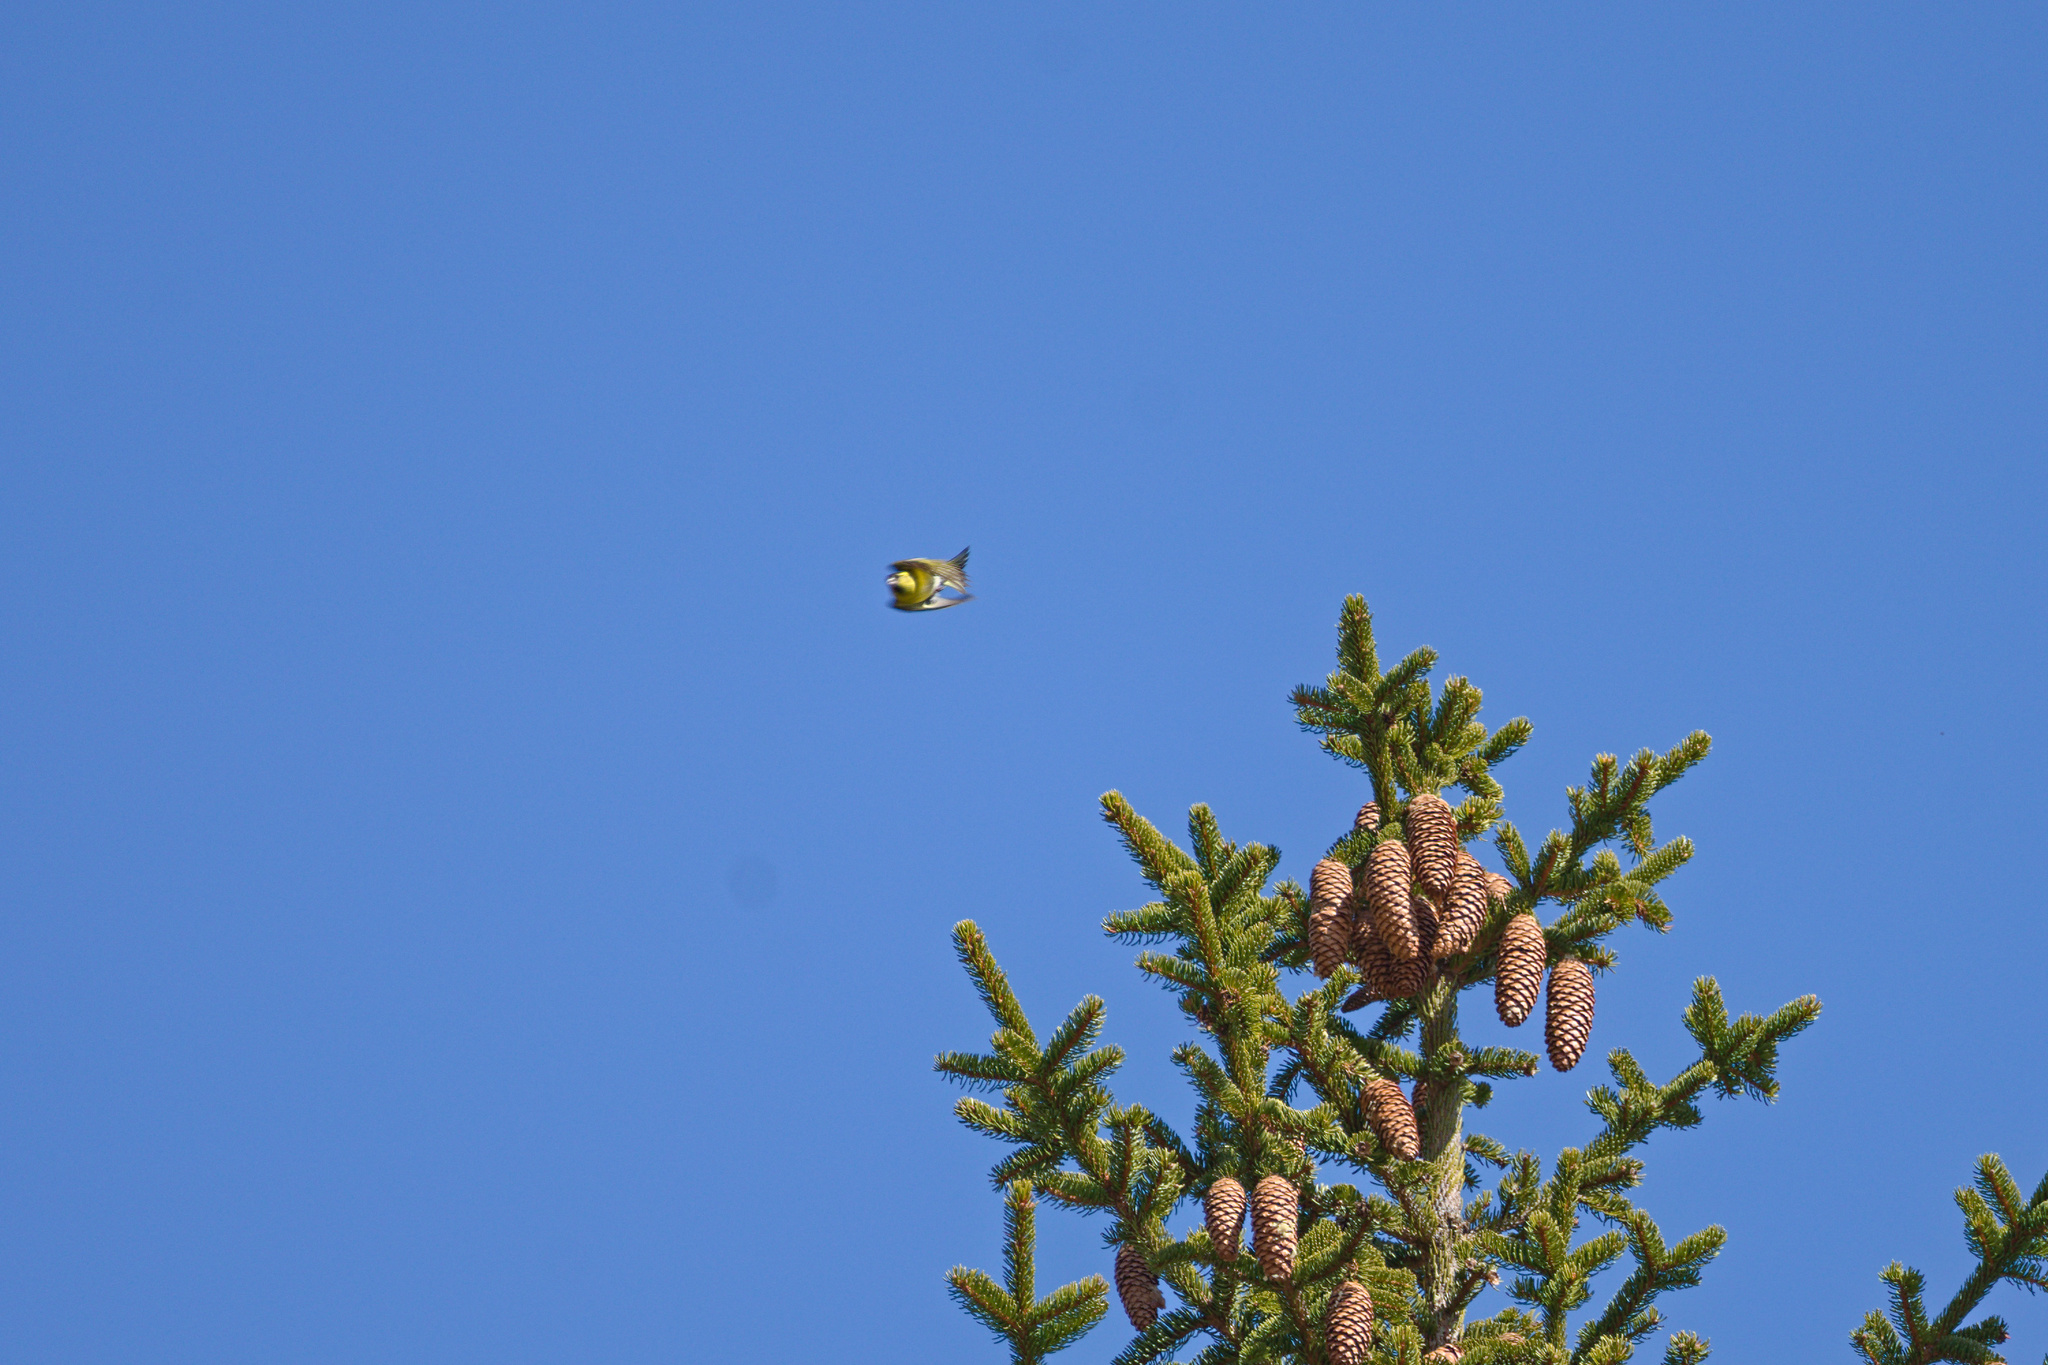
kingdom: Animalia
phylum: Chordata
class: Aves
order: Passeriformes
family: Fringillidae
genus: Spinus
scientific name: Spinus spinus
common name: Eurasian siskin
